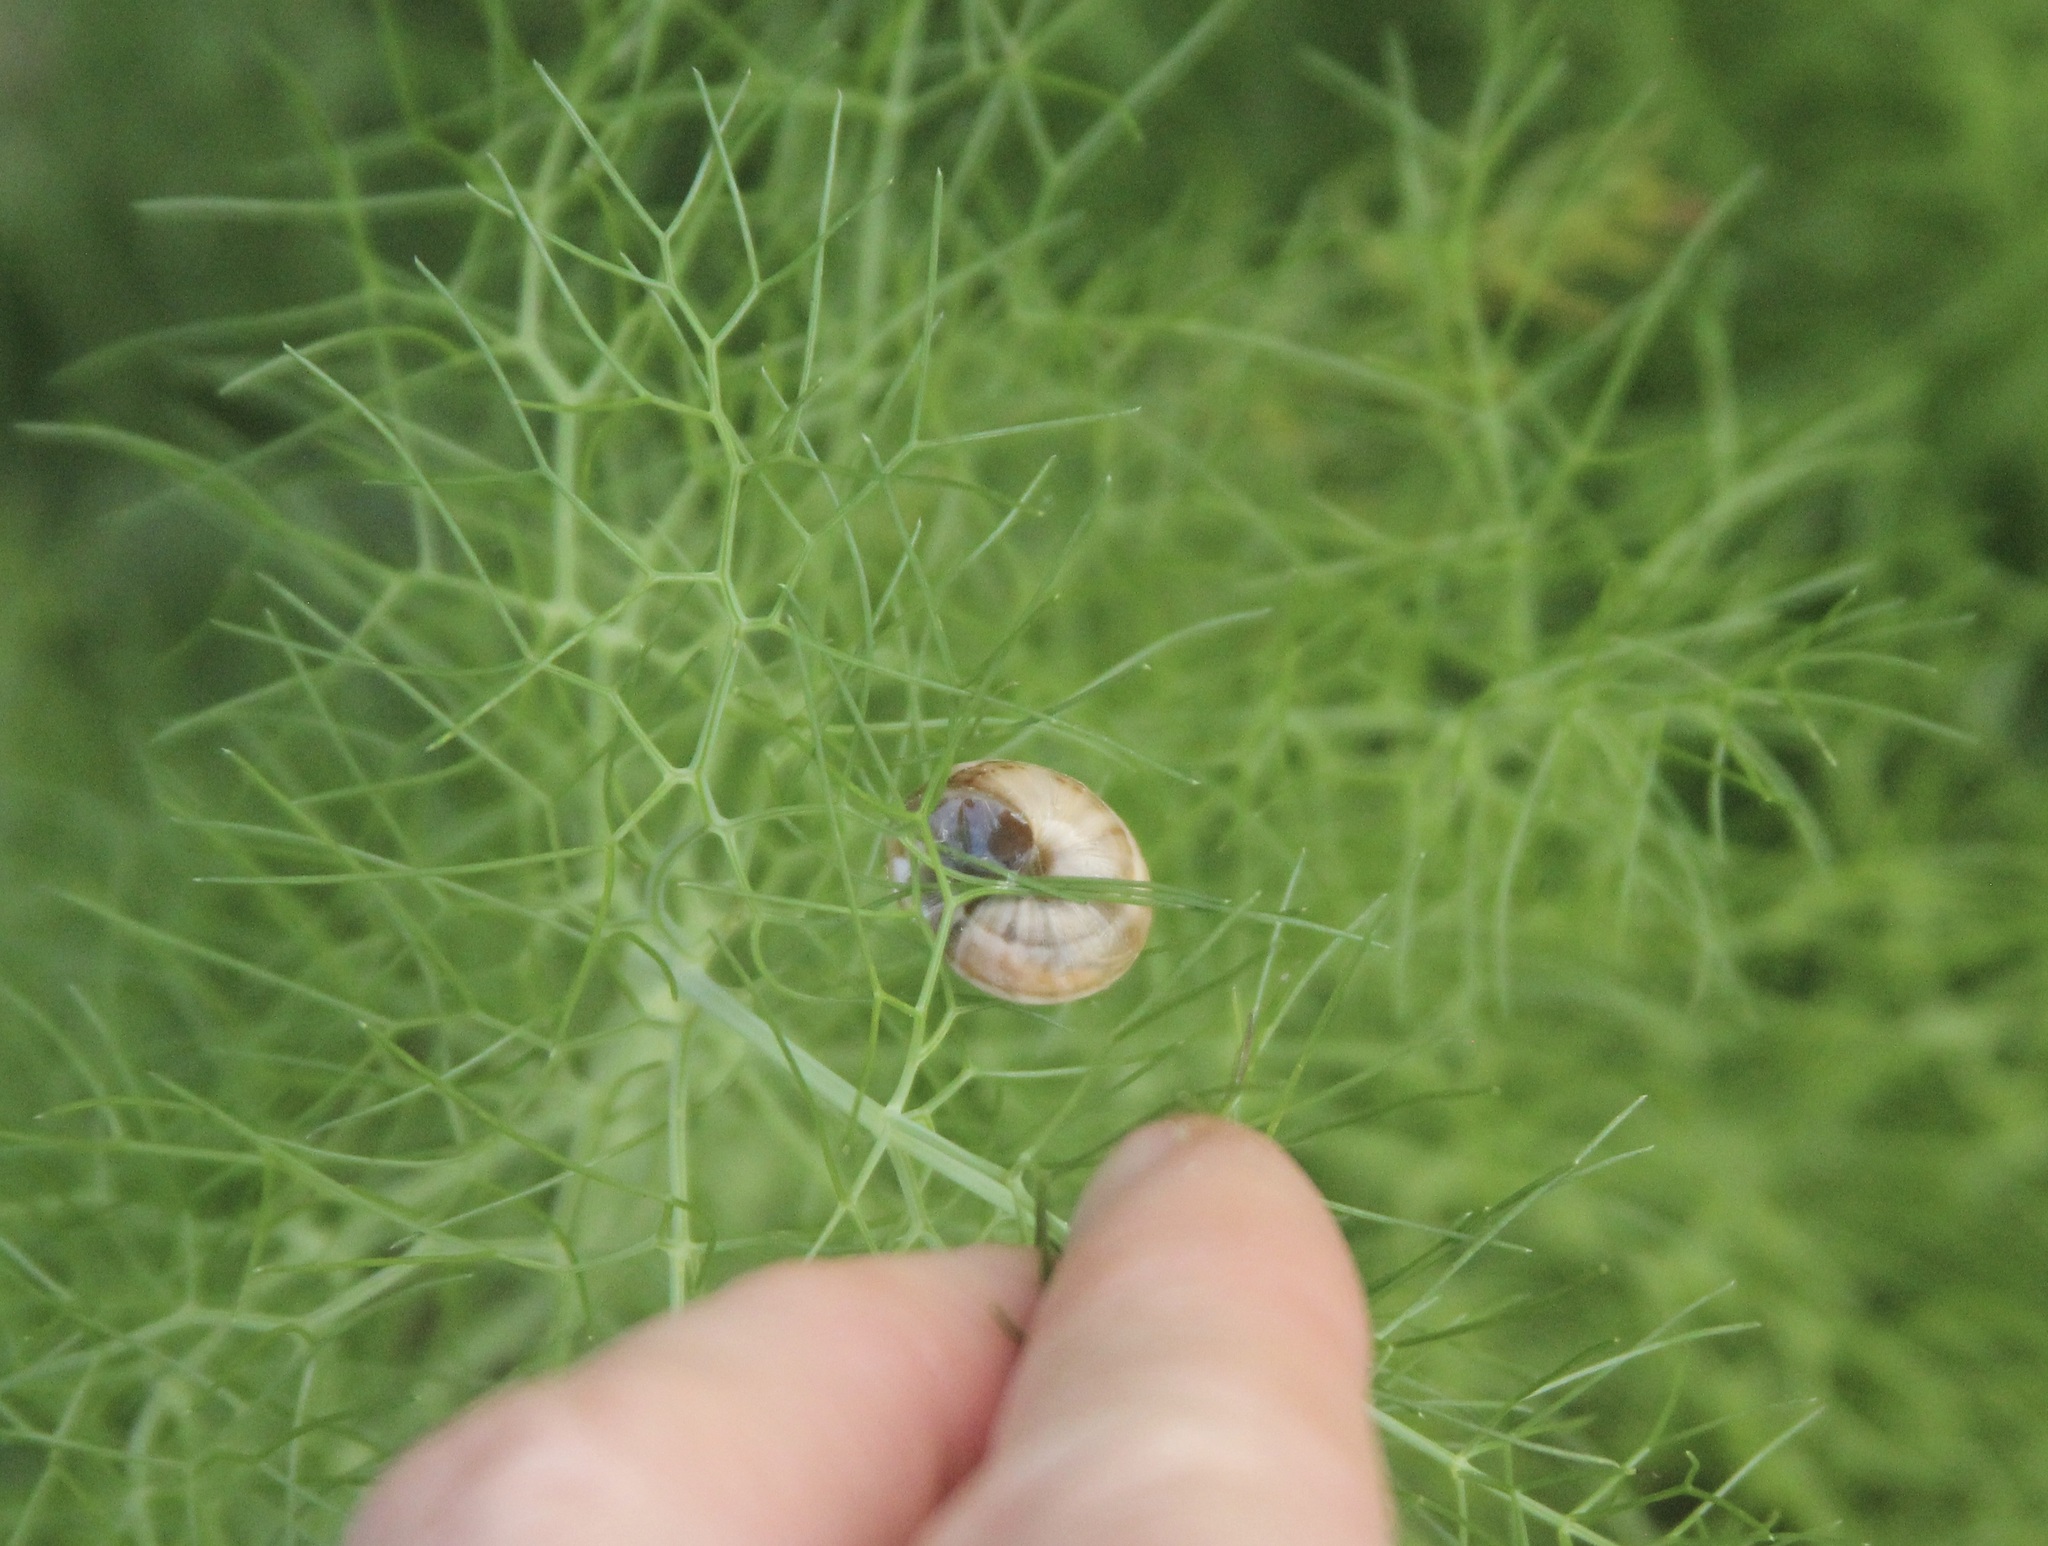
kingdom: Animalia
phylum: Mollusca
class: Gastropoda
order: Stylommatophora
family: Helicidae
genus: Theba
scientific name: Theba pisana
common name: White snail
